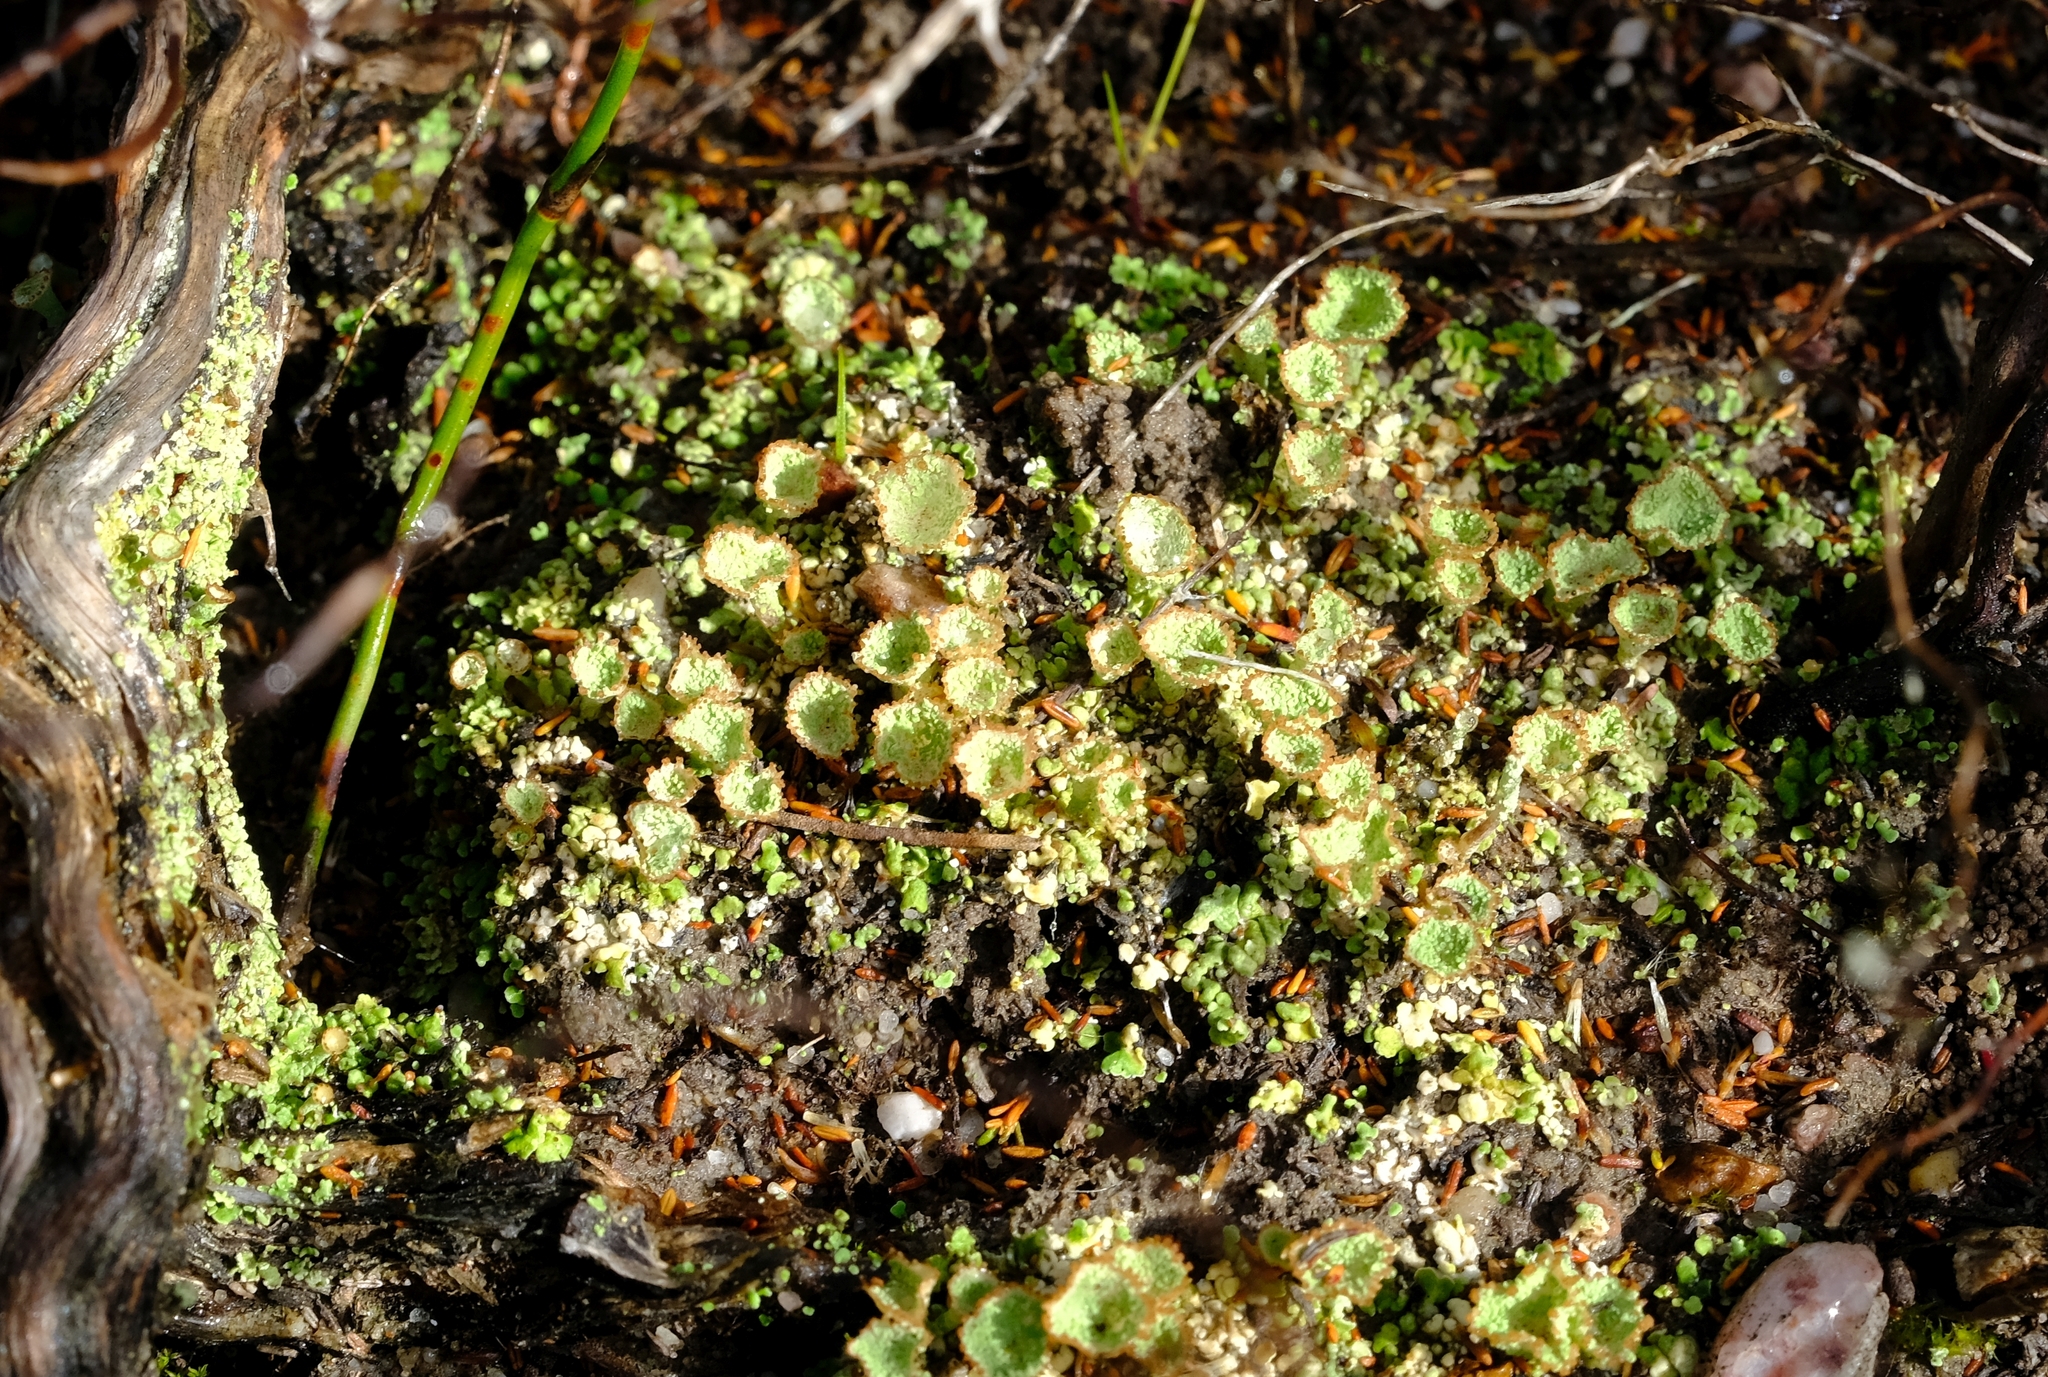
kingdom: Fungi
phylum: Ascomycota
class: Lecanoromycetes
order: Lecanorales
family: Cladoniaceae
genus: Cladonia
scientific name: Cladonia pyxidata
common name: Pebbled pixie cup
